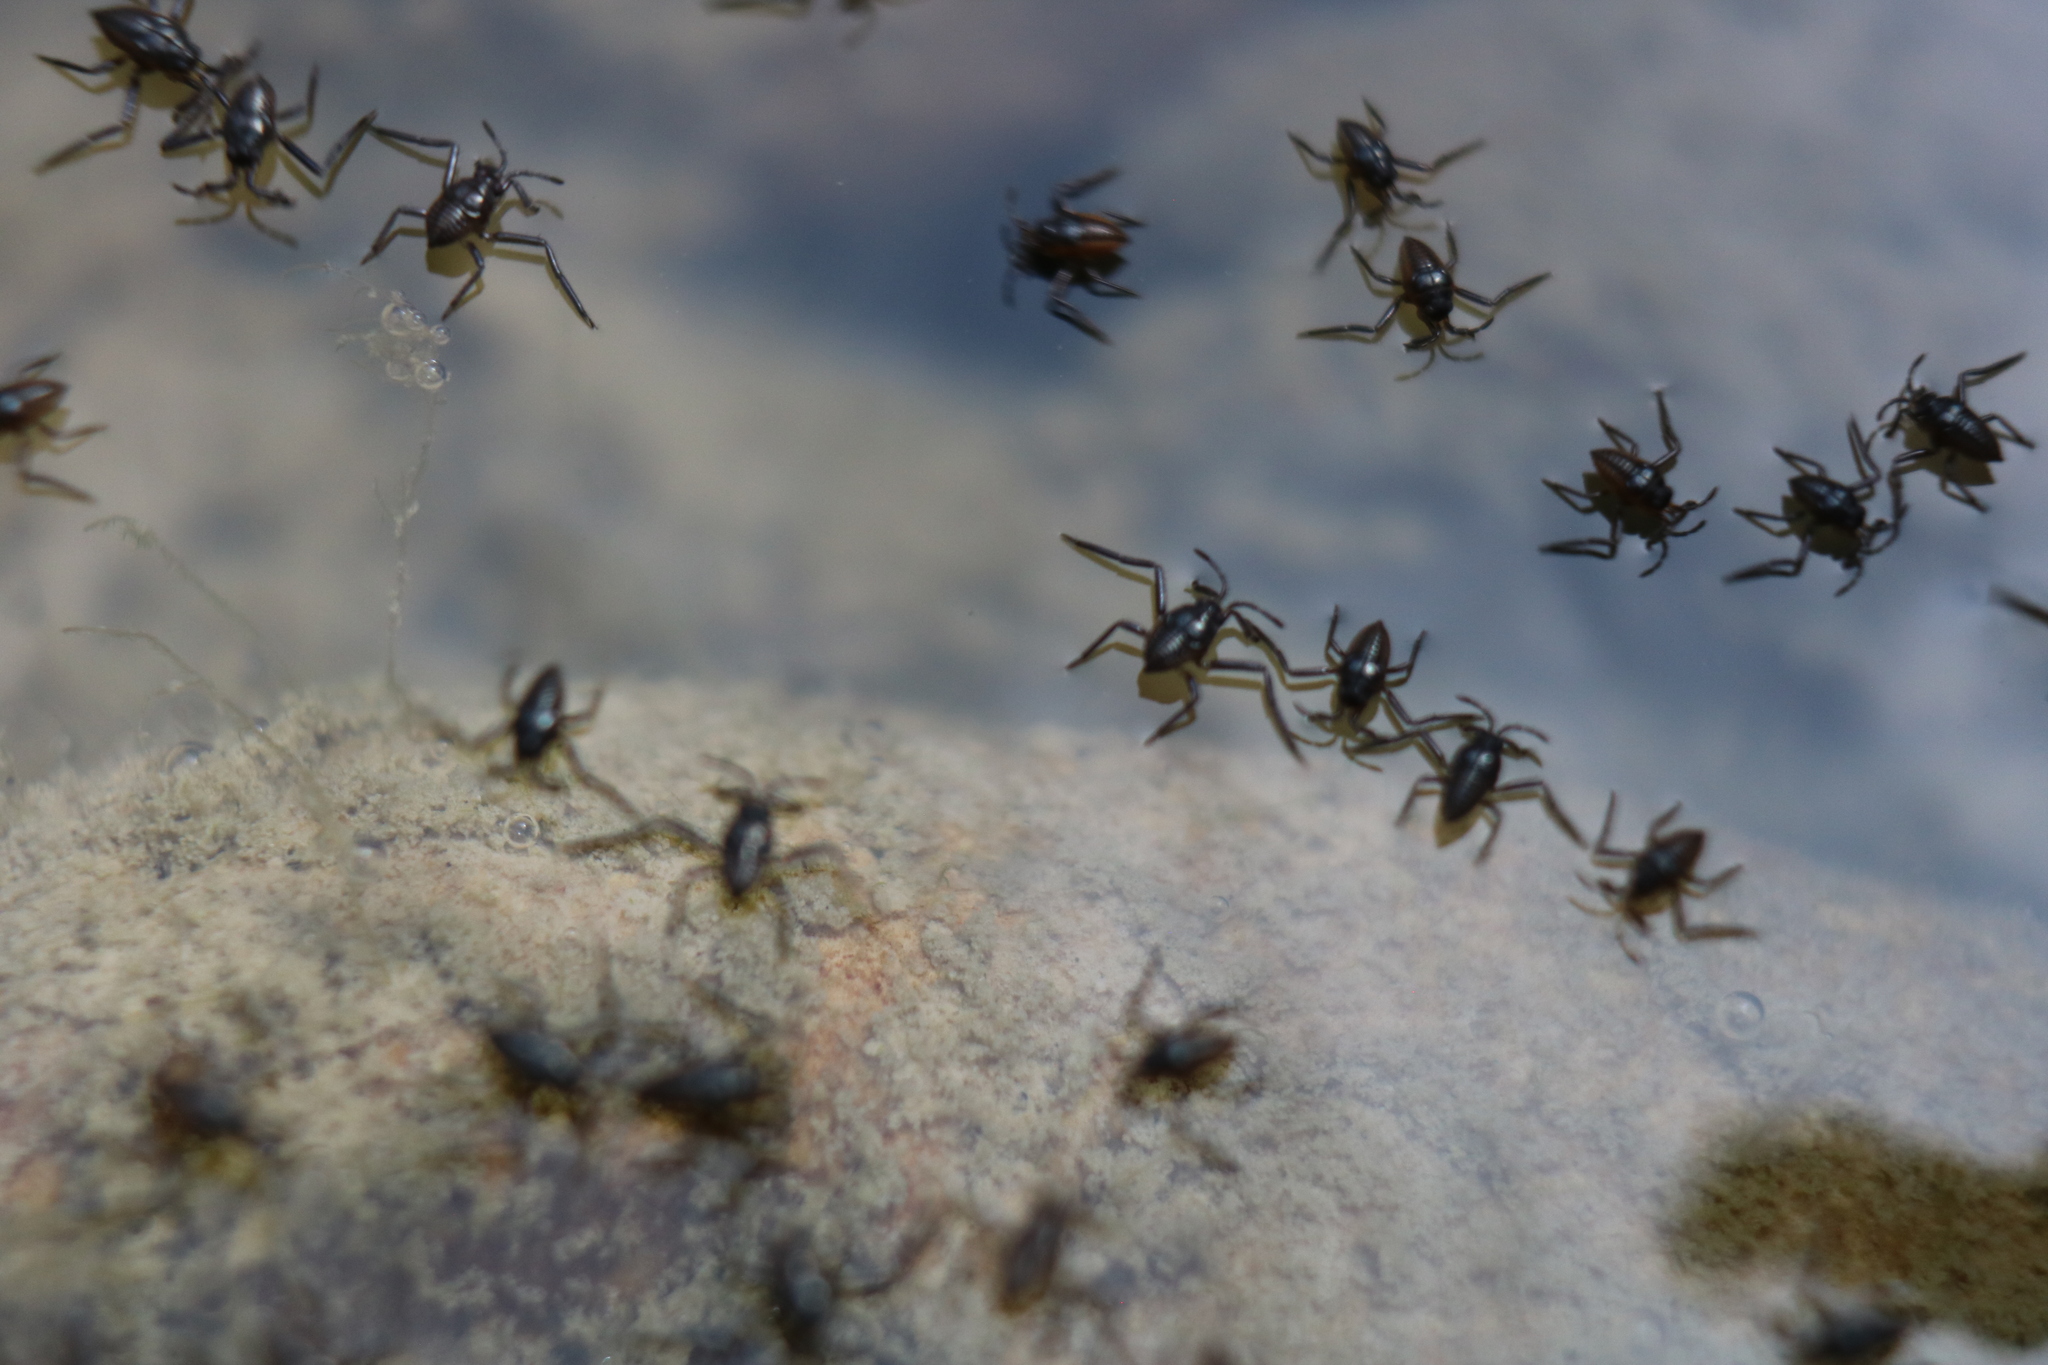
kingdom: Animalia
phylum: Arthropoda
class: Insecta
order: Hemiptera
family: Veliidae
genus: Rhagovelia
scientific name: Rhagovelia obesa
